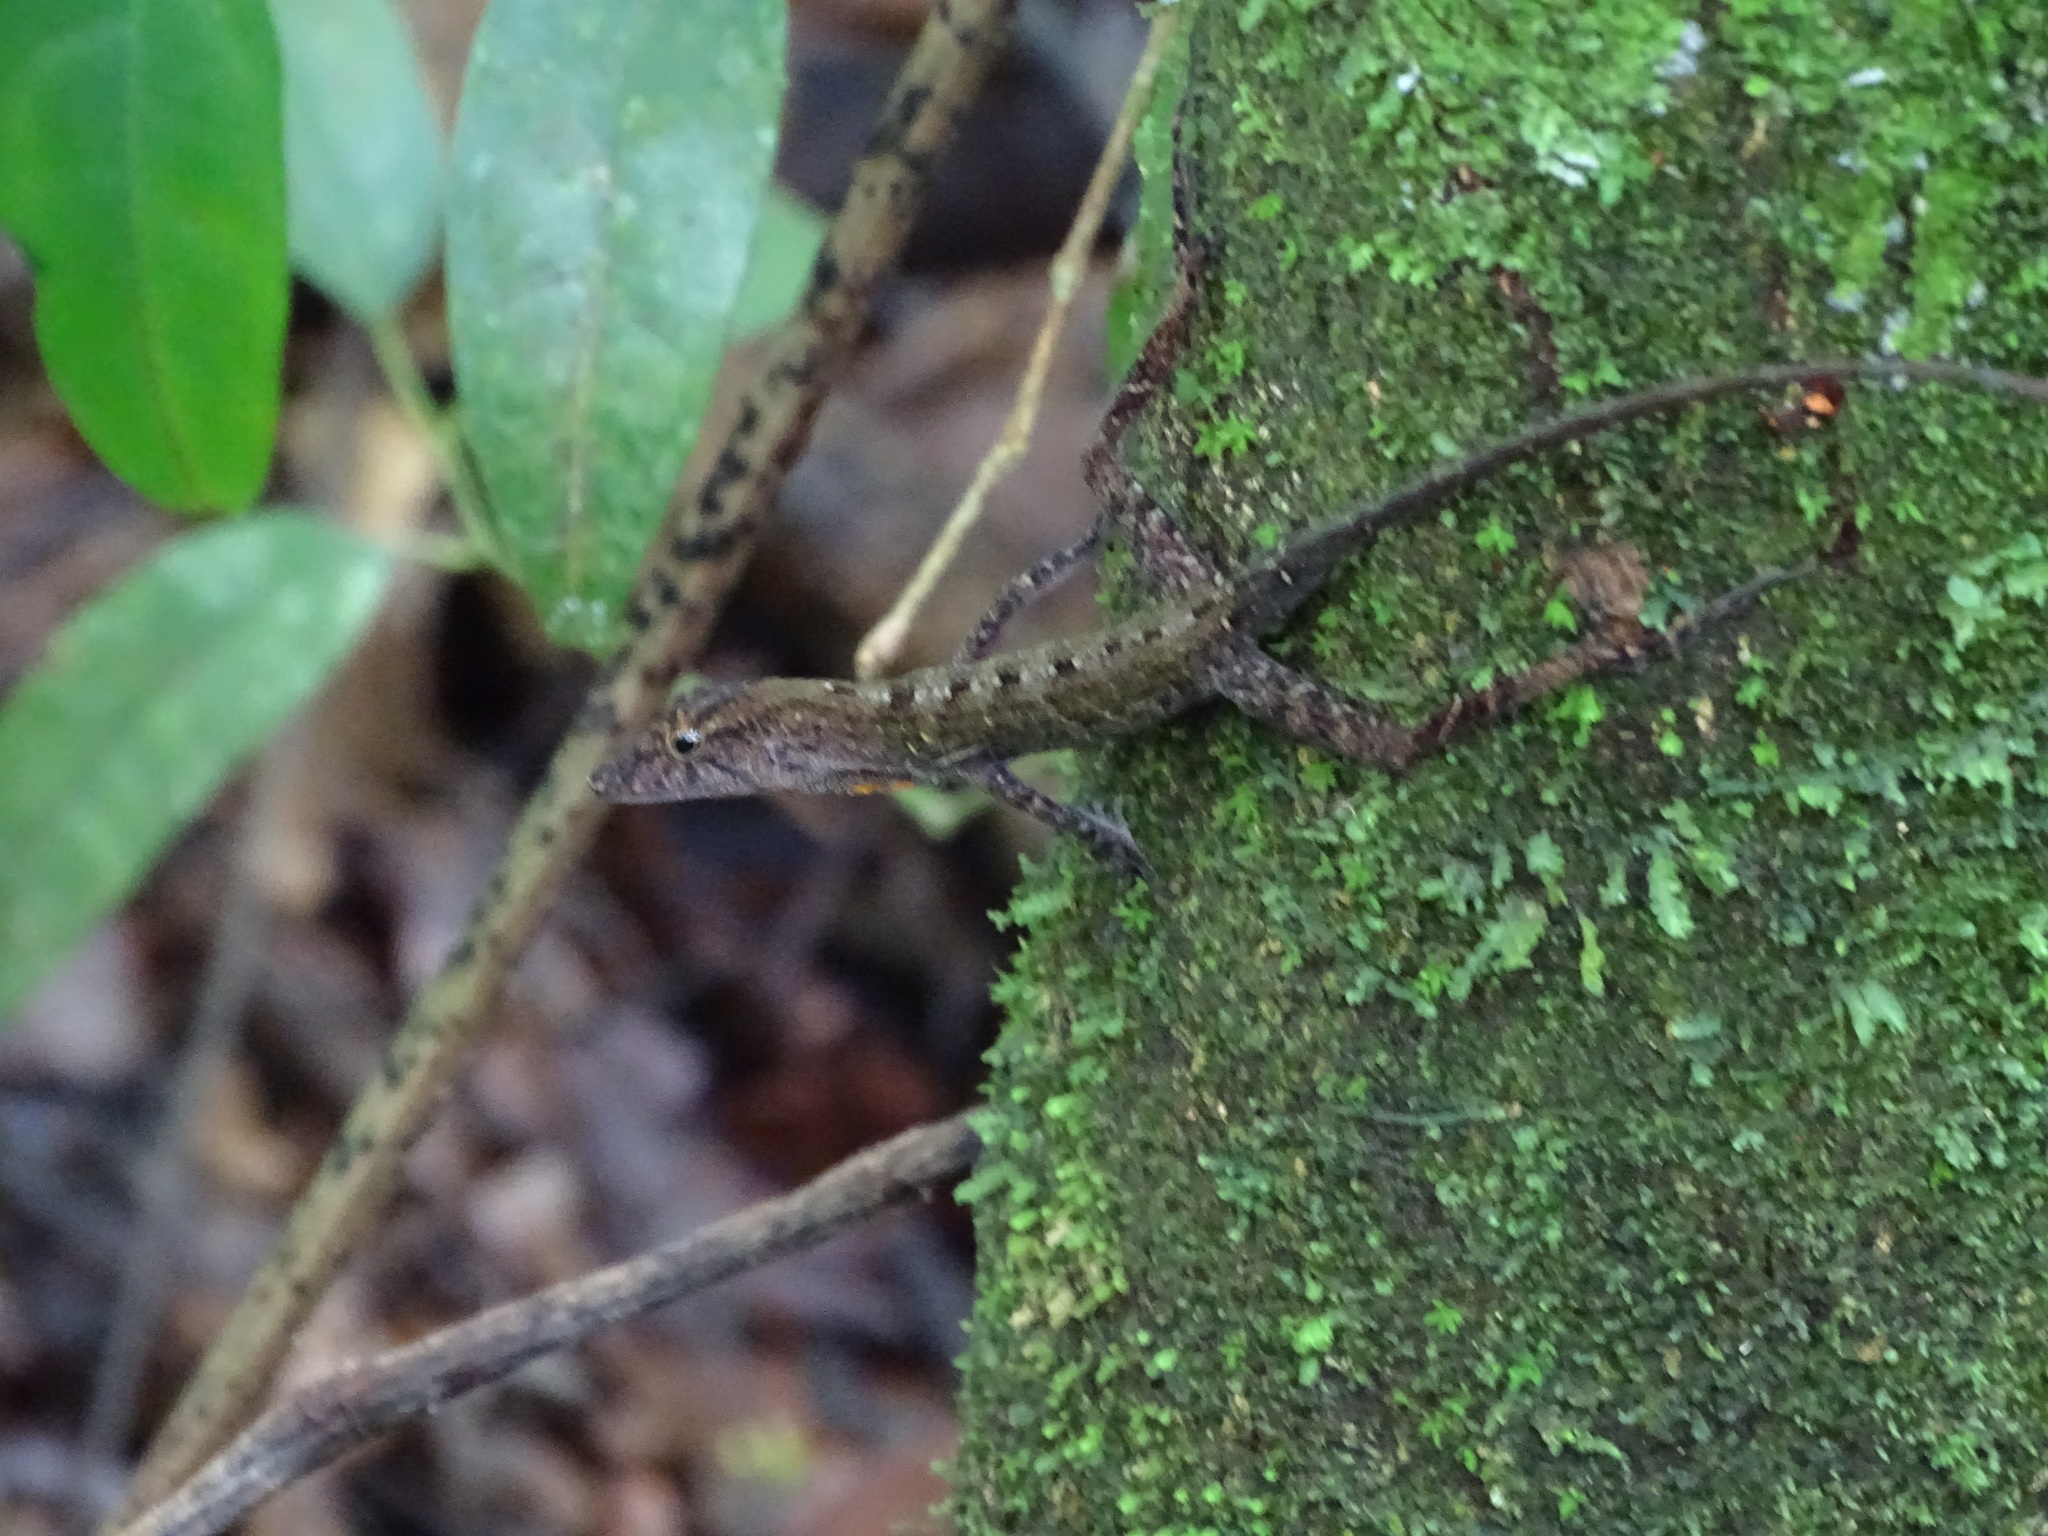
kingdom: Animalia
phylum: Chordata
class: Squamata
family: Dactyloidae
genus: Anolis
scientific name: Anolis osa
